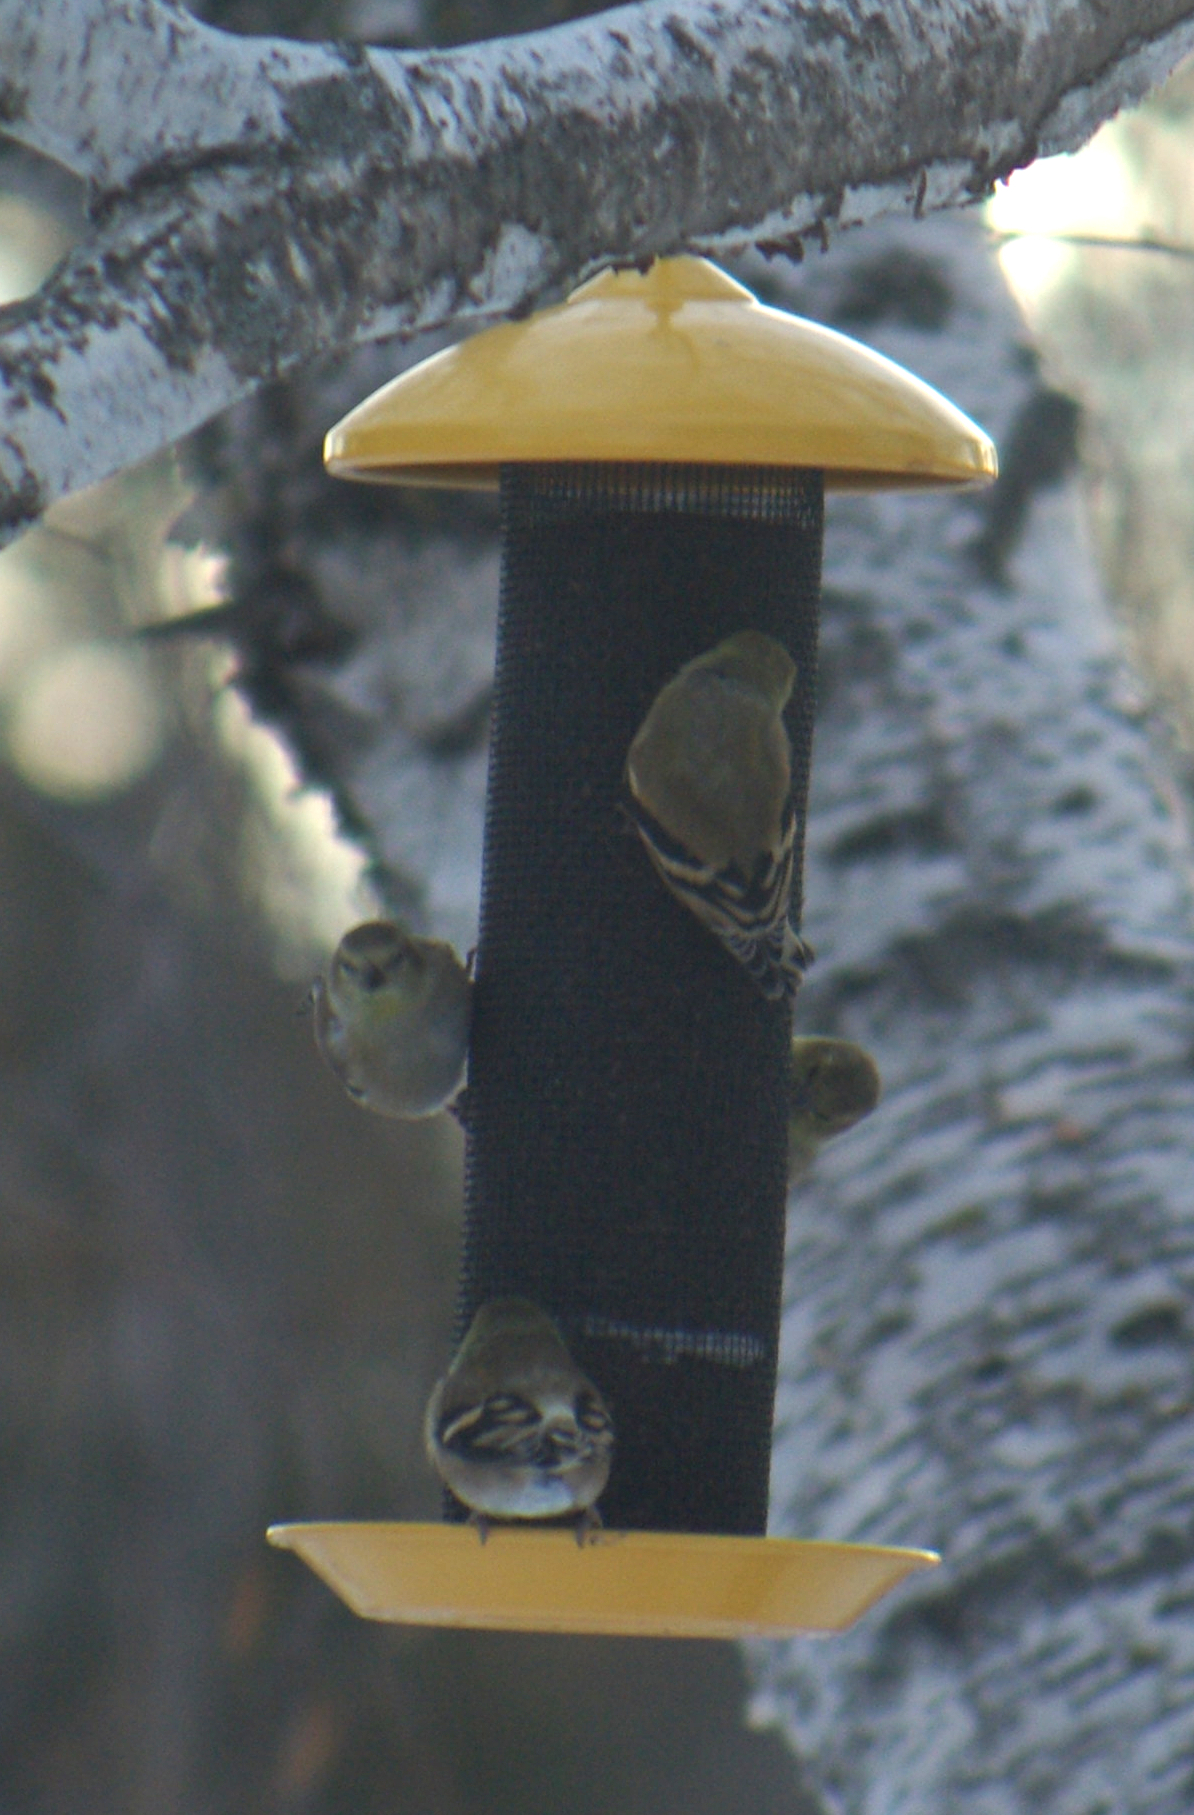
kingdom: Animalia
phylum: Chordata
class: Aves
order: Passeriformes
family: Fringillidae
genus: Spinus
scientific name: Spinus tristis
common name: American goldfinch
